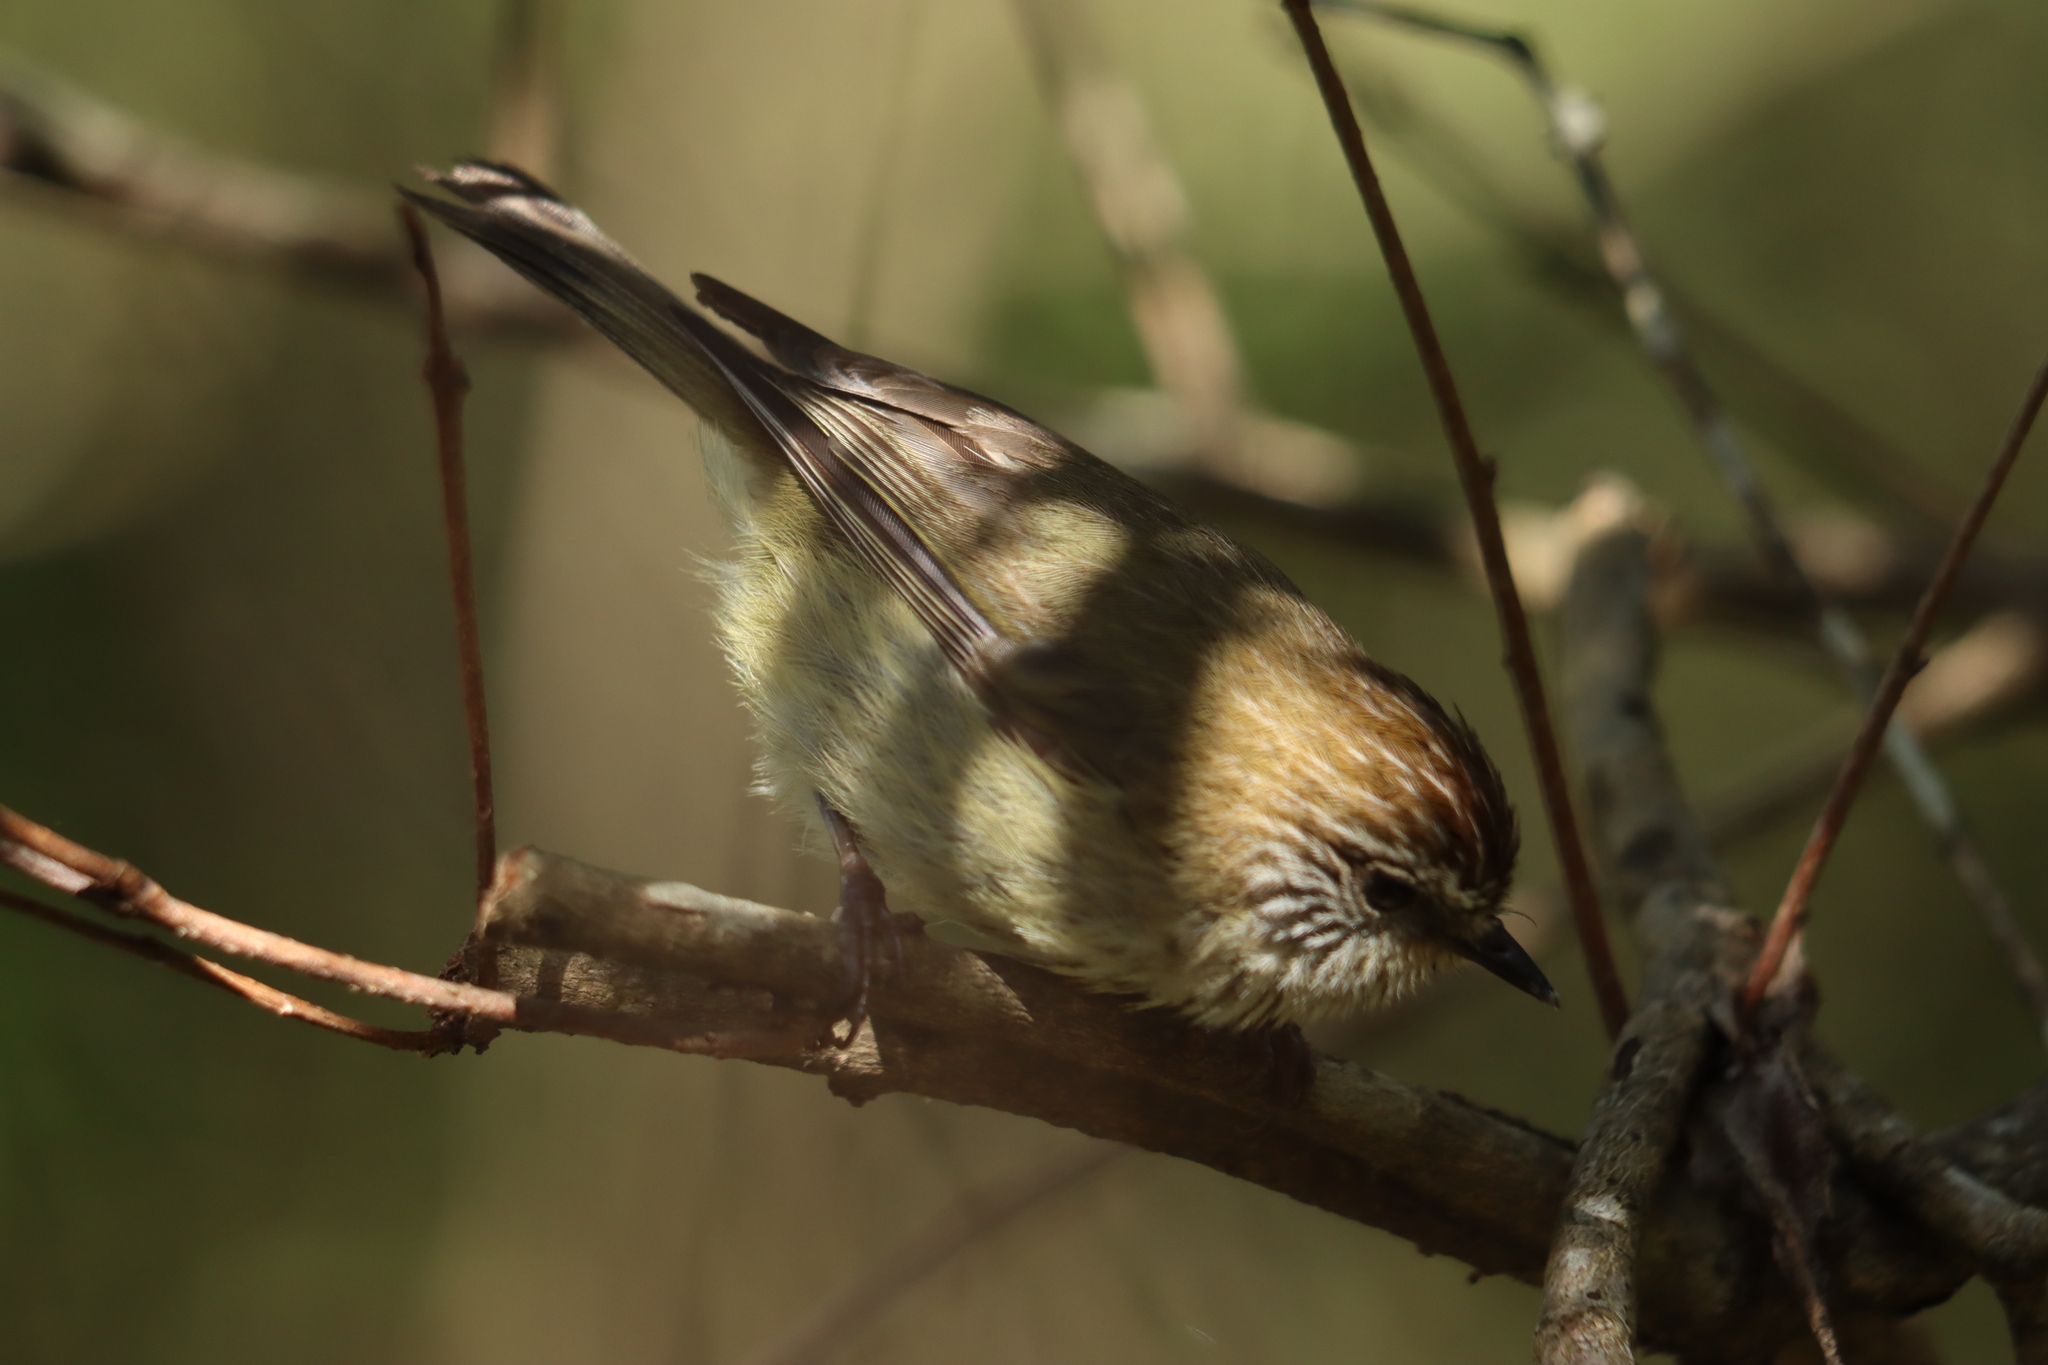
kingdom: Animalia
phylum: Chordata
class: Aves
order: Passeriformes
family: Acanthizidae
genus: Acanthiza
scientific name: Acanthiza lineata
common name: Striated thornbill
